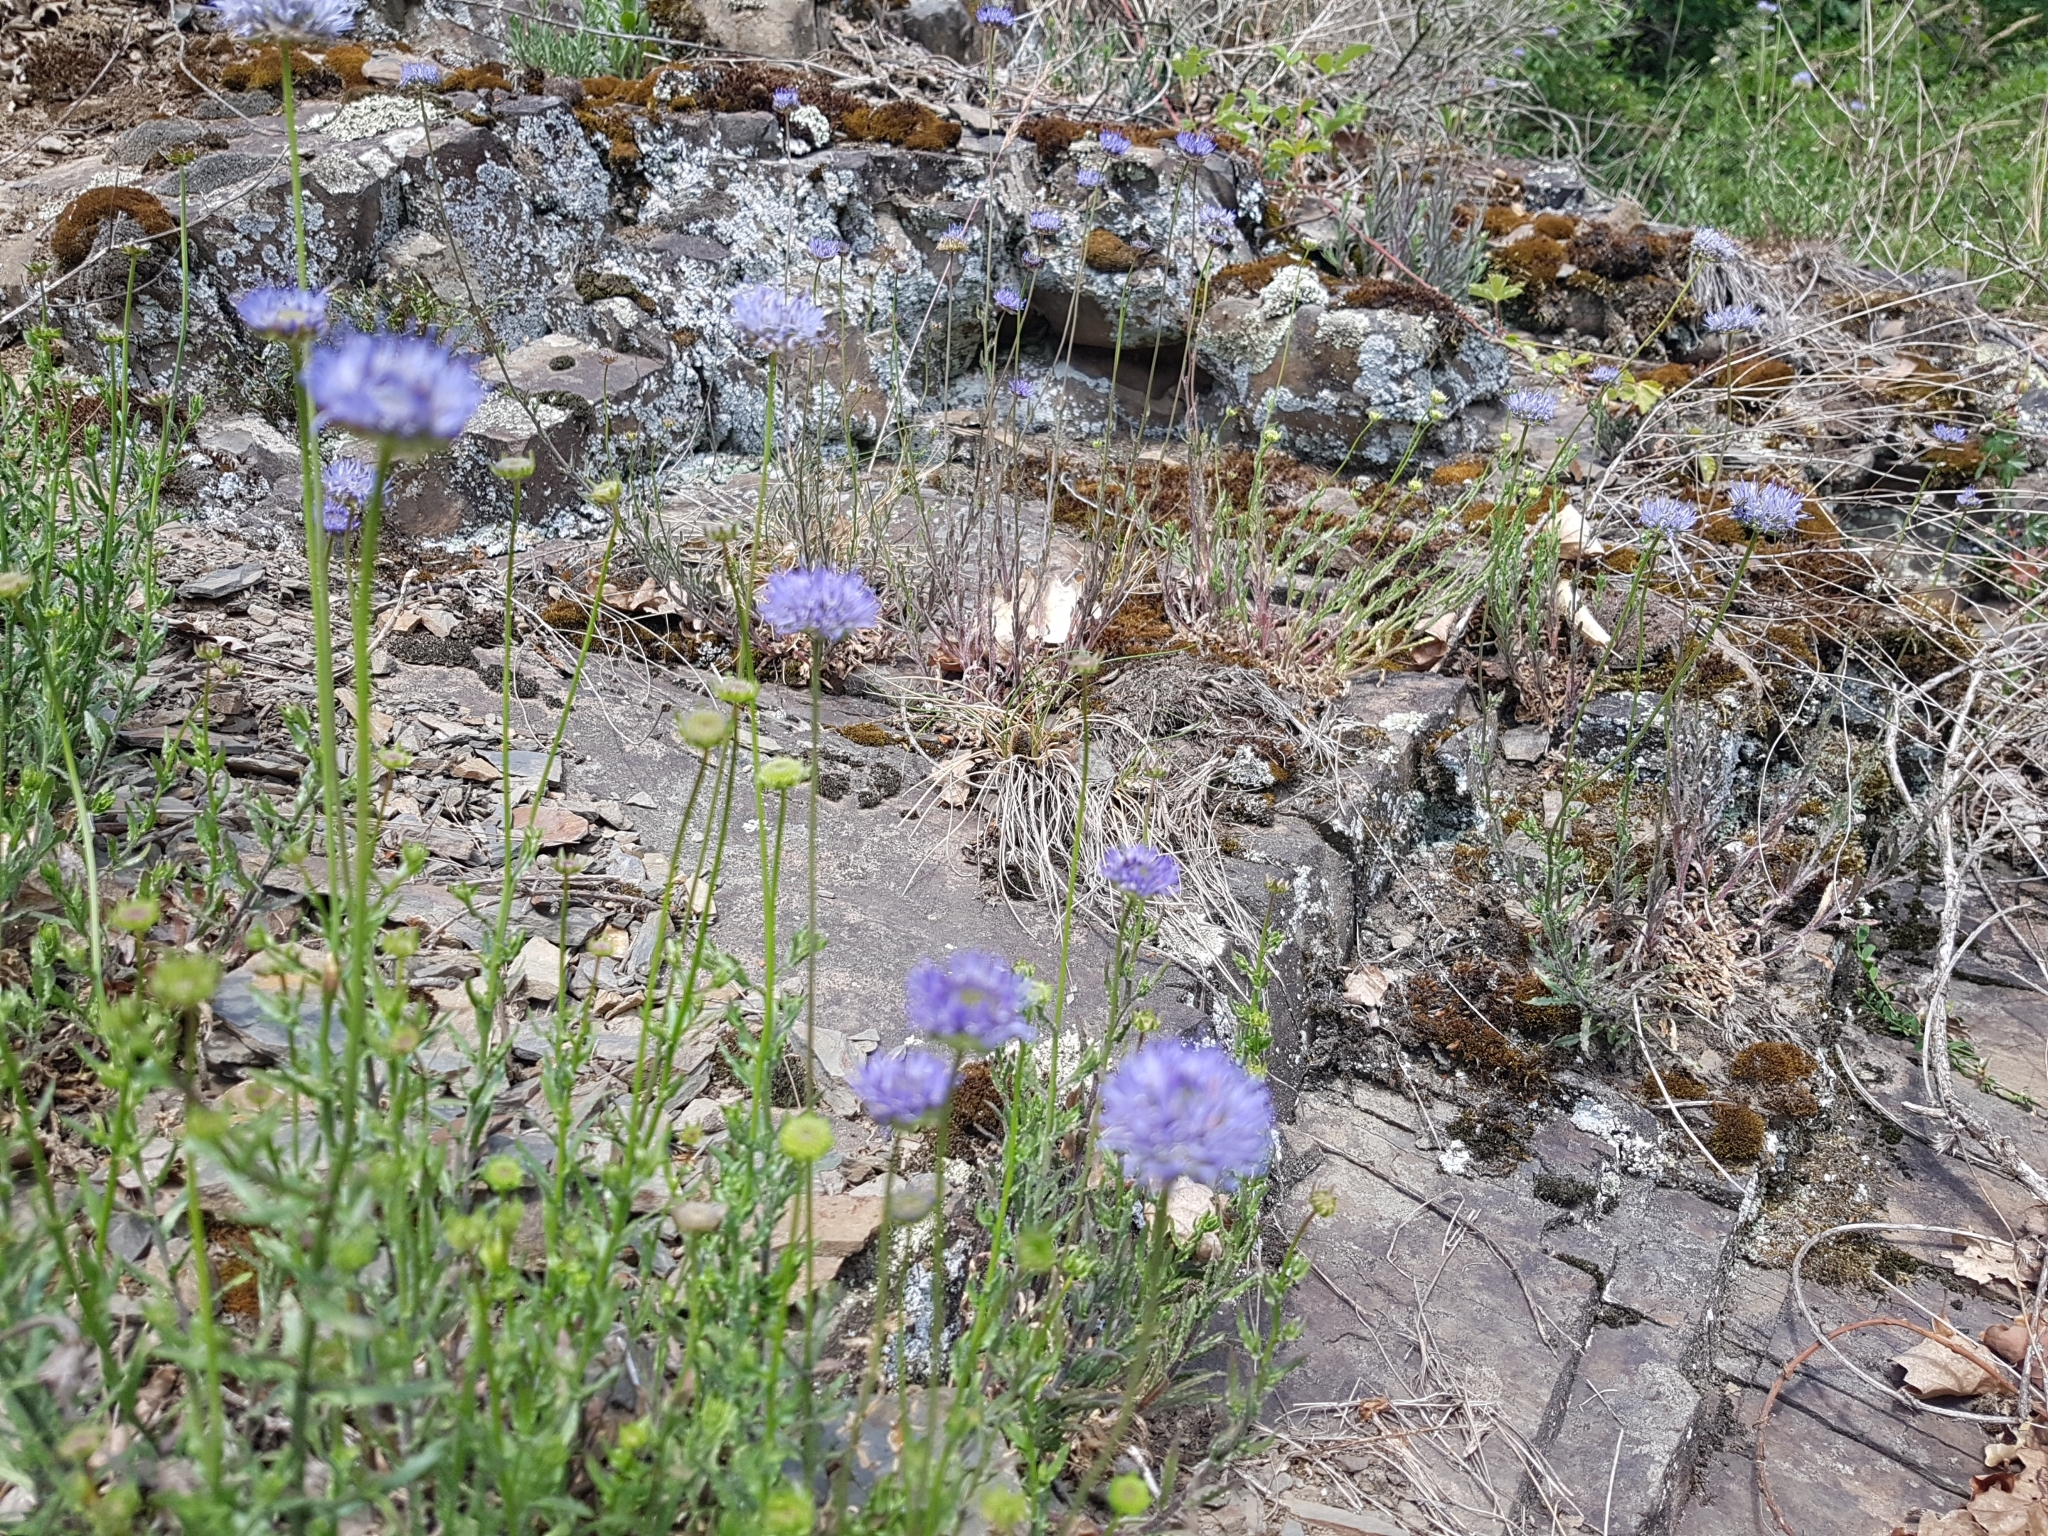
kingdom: Plantae
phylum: Tracheophyta
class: Magnoliopsida
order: Asterales
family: Campanulaceae
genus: Jasione
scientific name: Jasione montana
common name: Sheep's-bit
